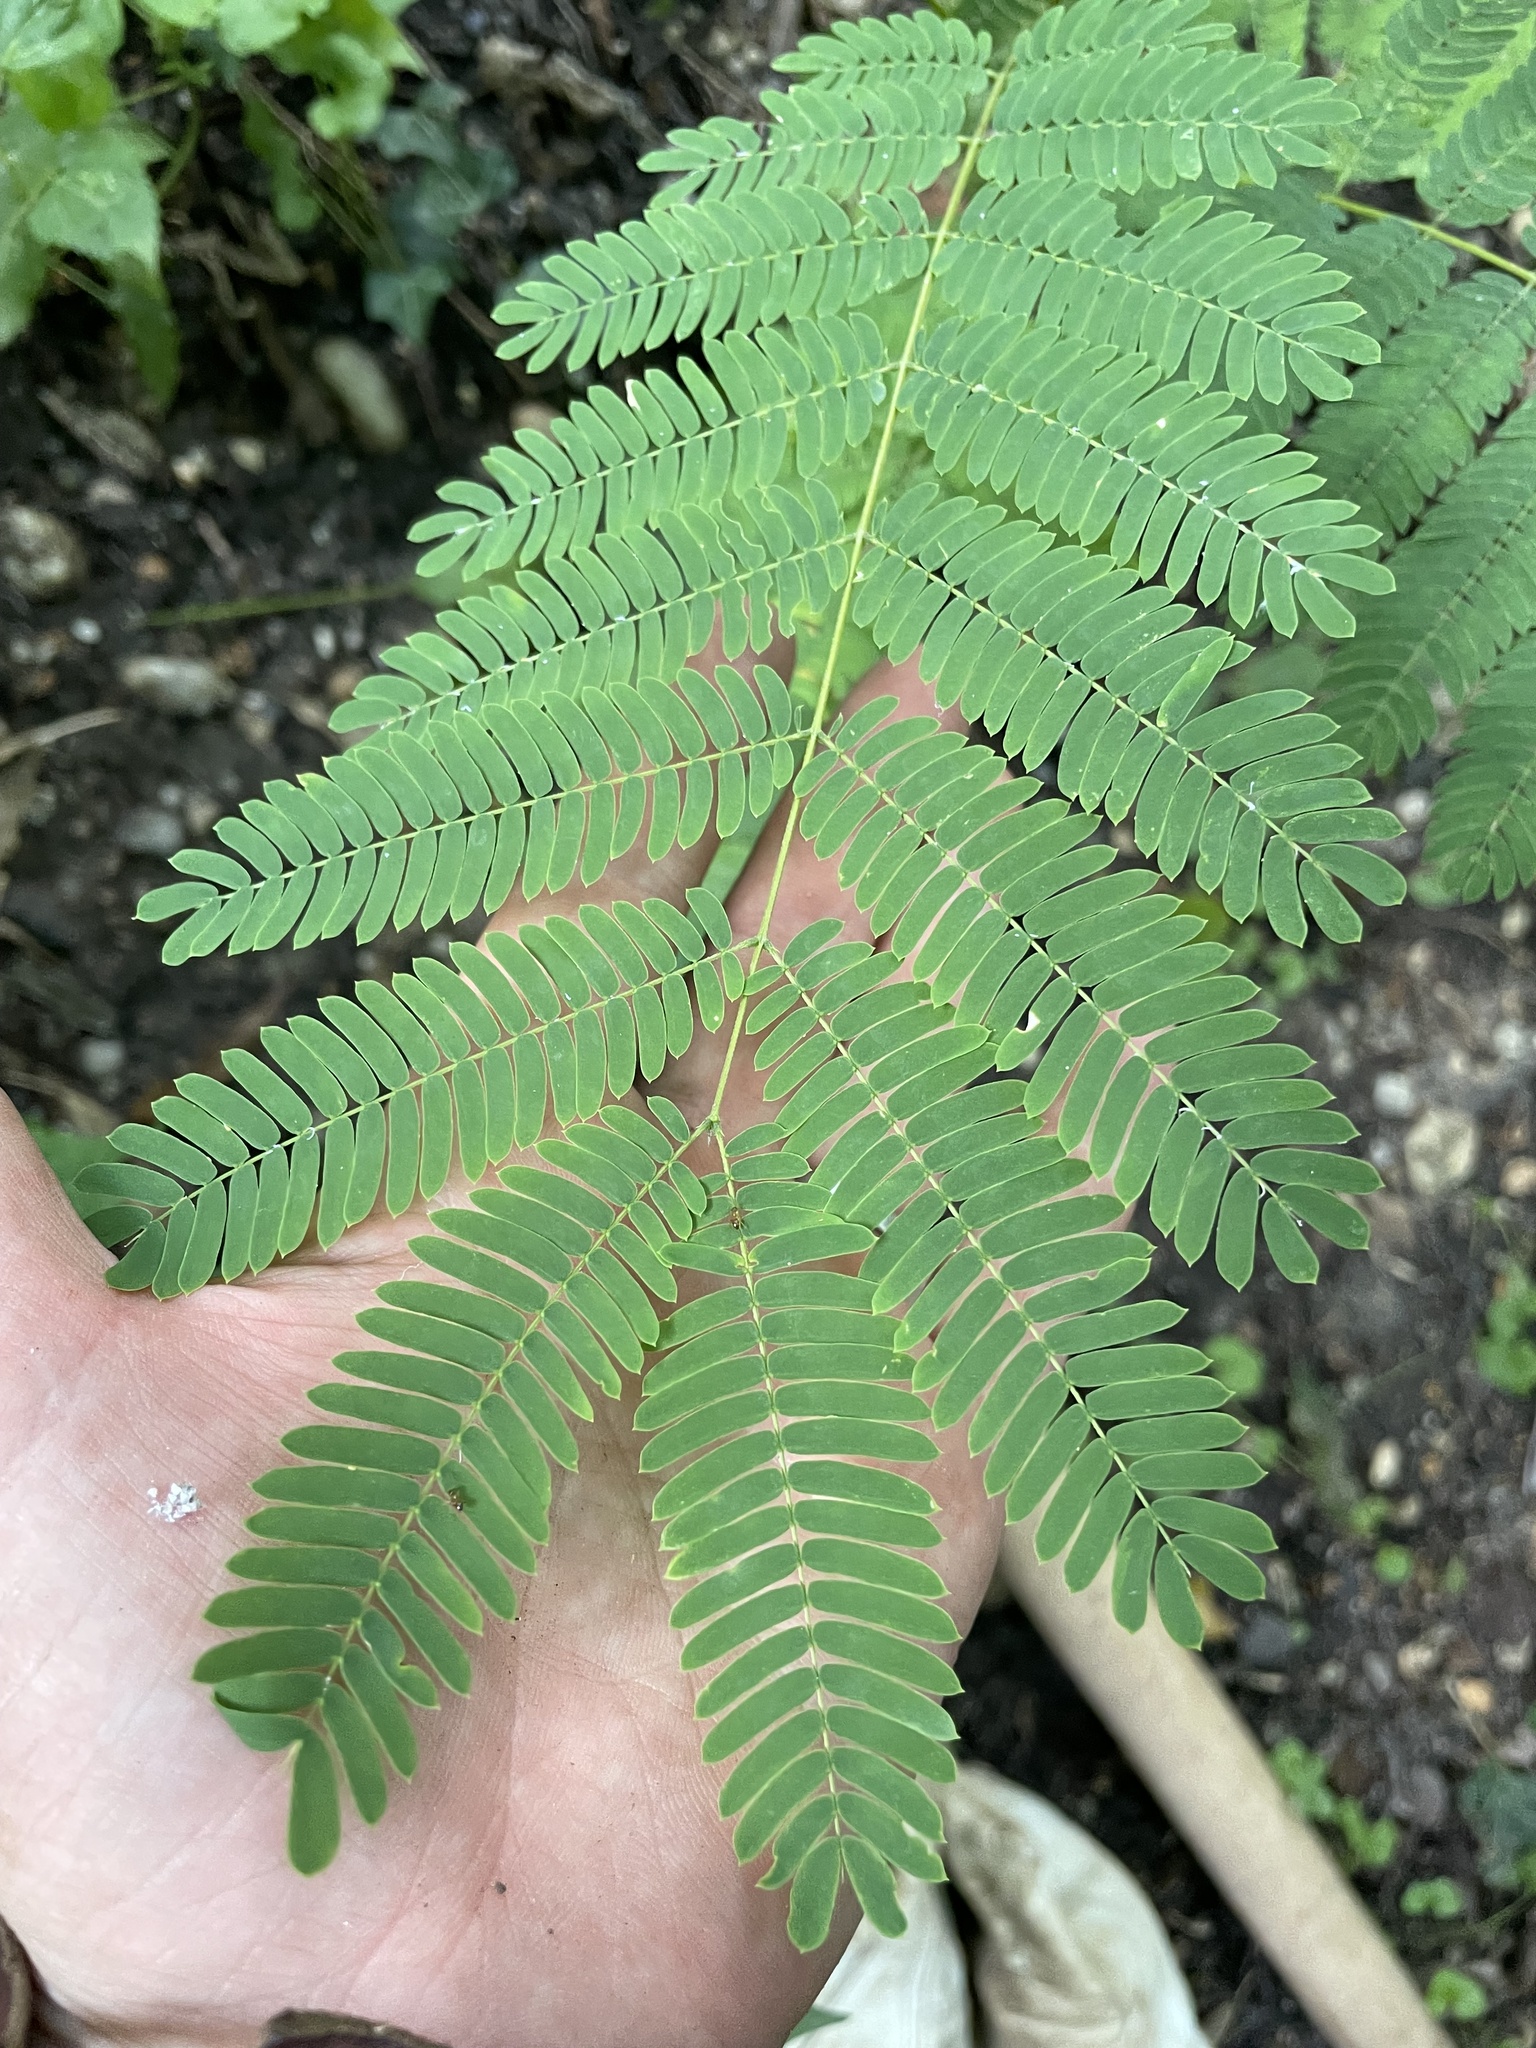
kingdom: Plantae
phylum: Tracheophyta
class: Magnoliopsida
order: Fabales
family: Fabaceae
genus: Albizia
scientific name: Albizia julibrissin
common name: Silktree
